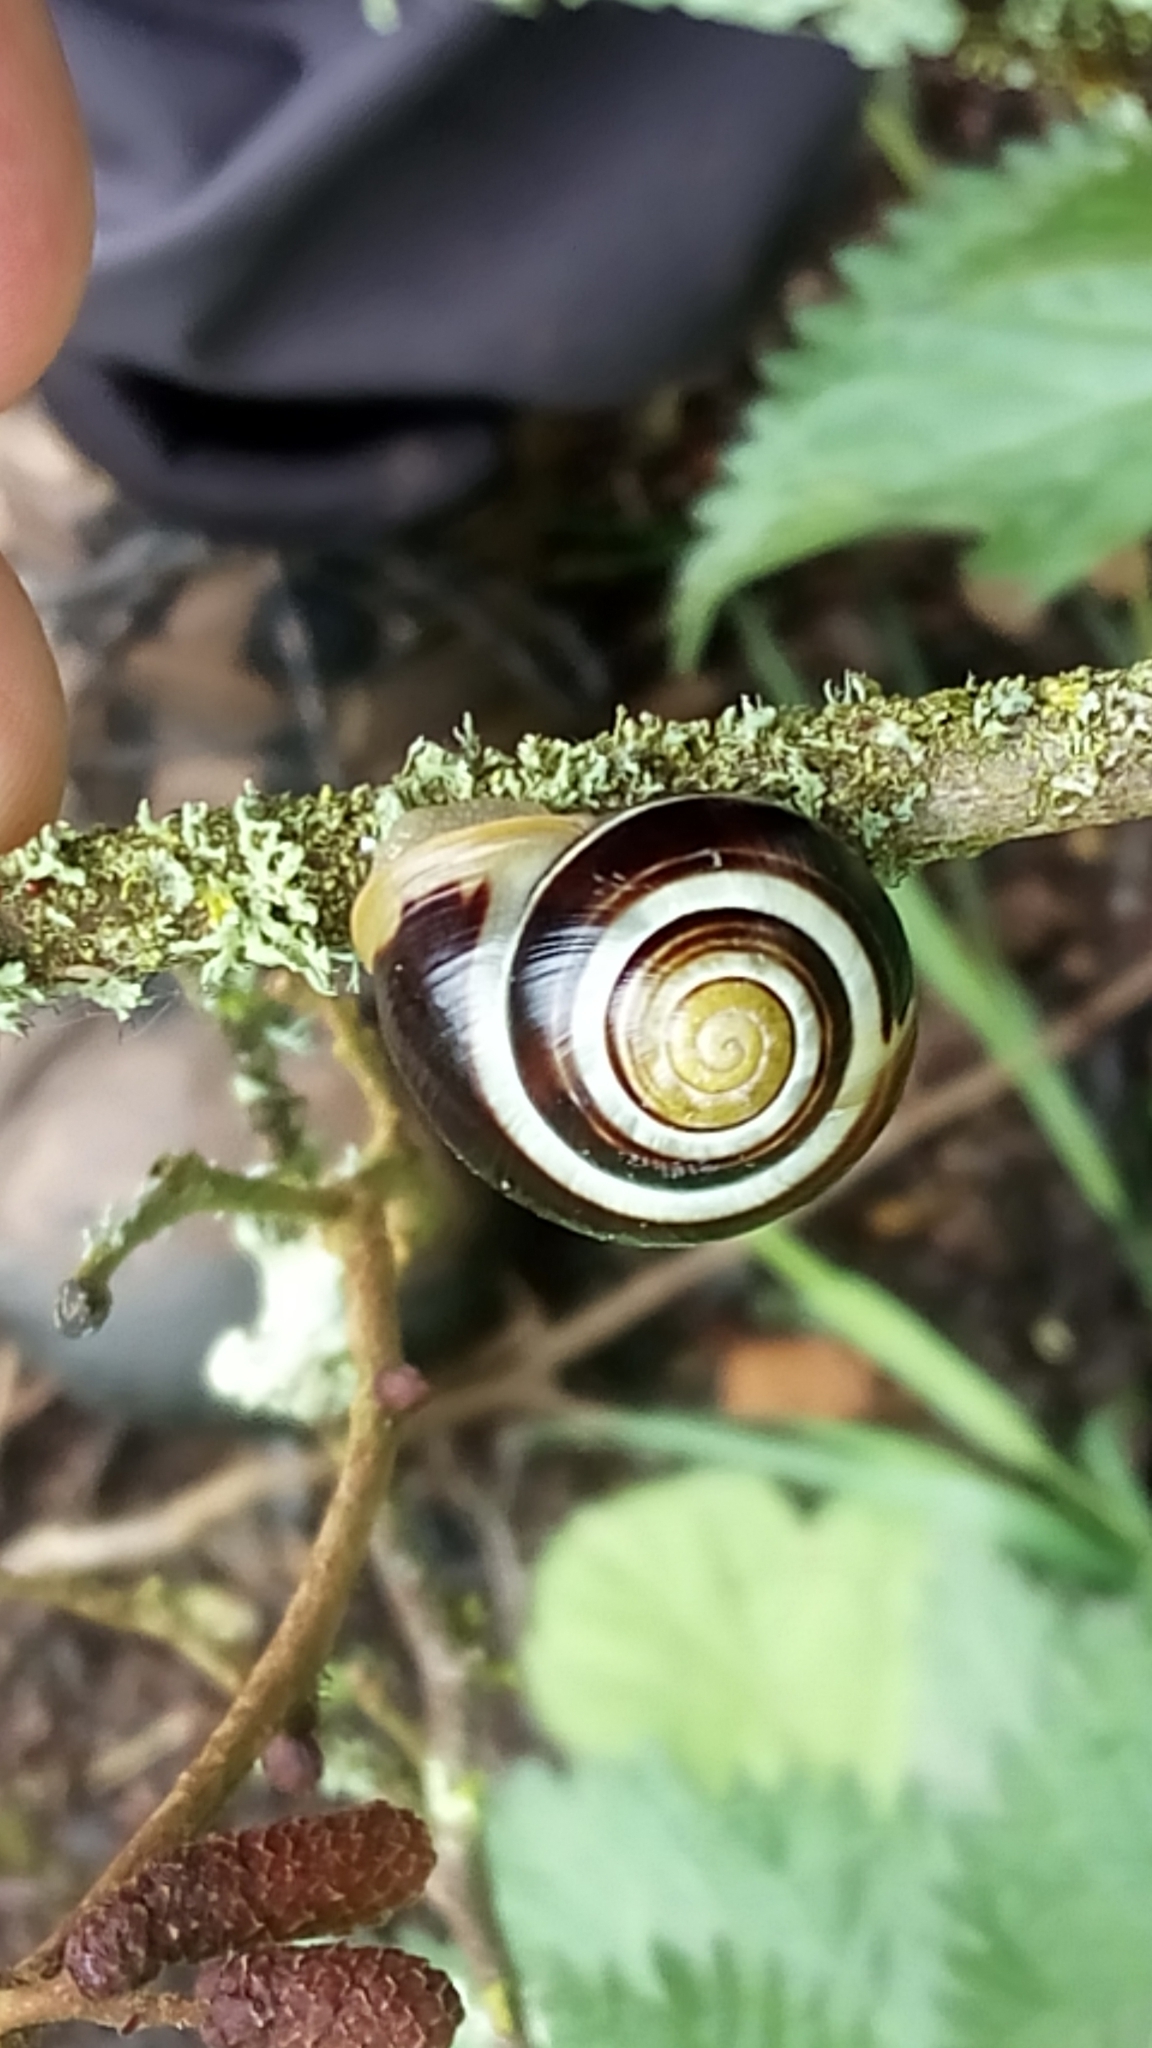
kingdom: Animalia
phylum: Mollusca
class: Gastropoda
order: Stylommatophora
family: Helicidae
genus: Cepaea
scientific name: Cepaea hortensis
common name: White-lip gardensnail
